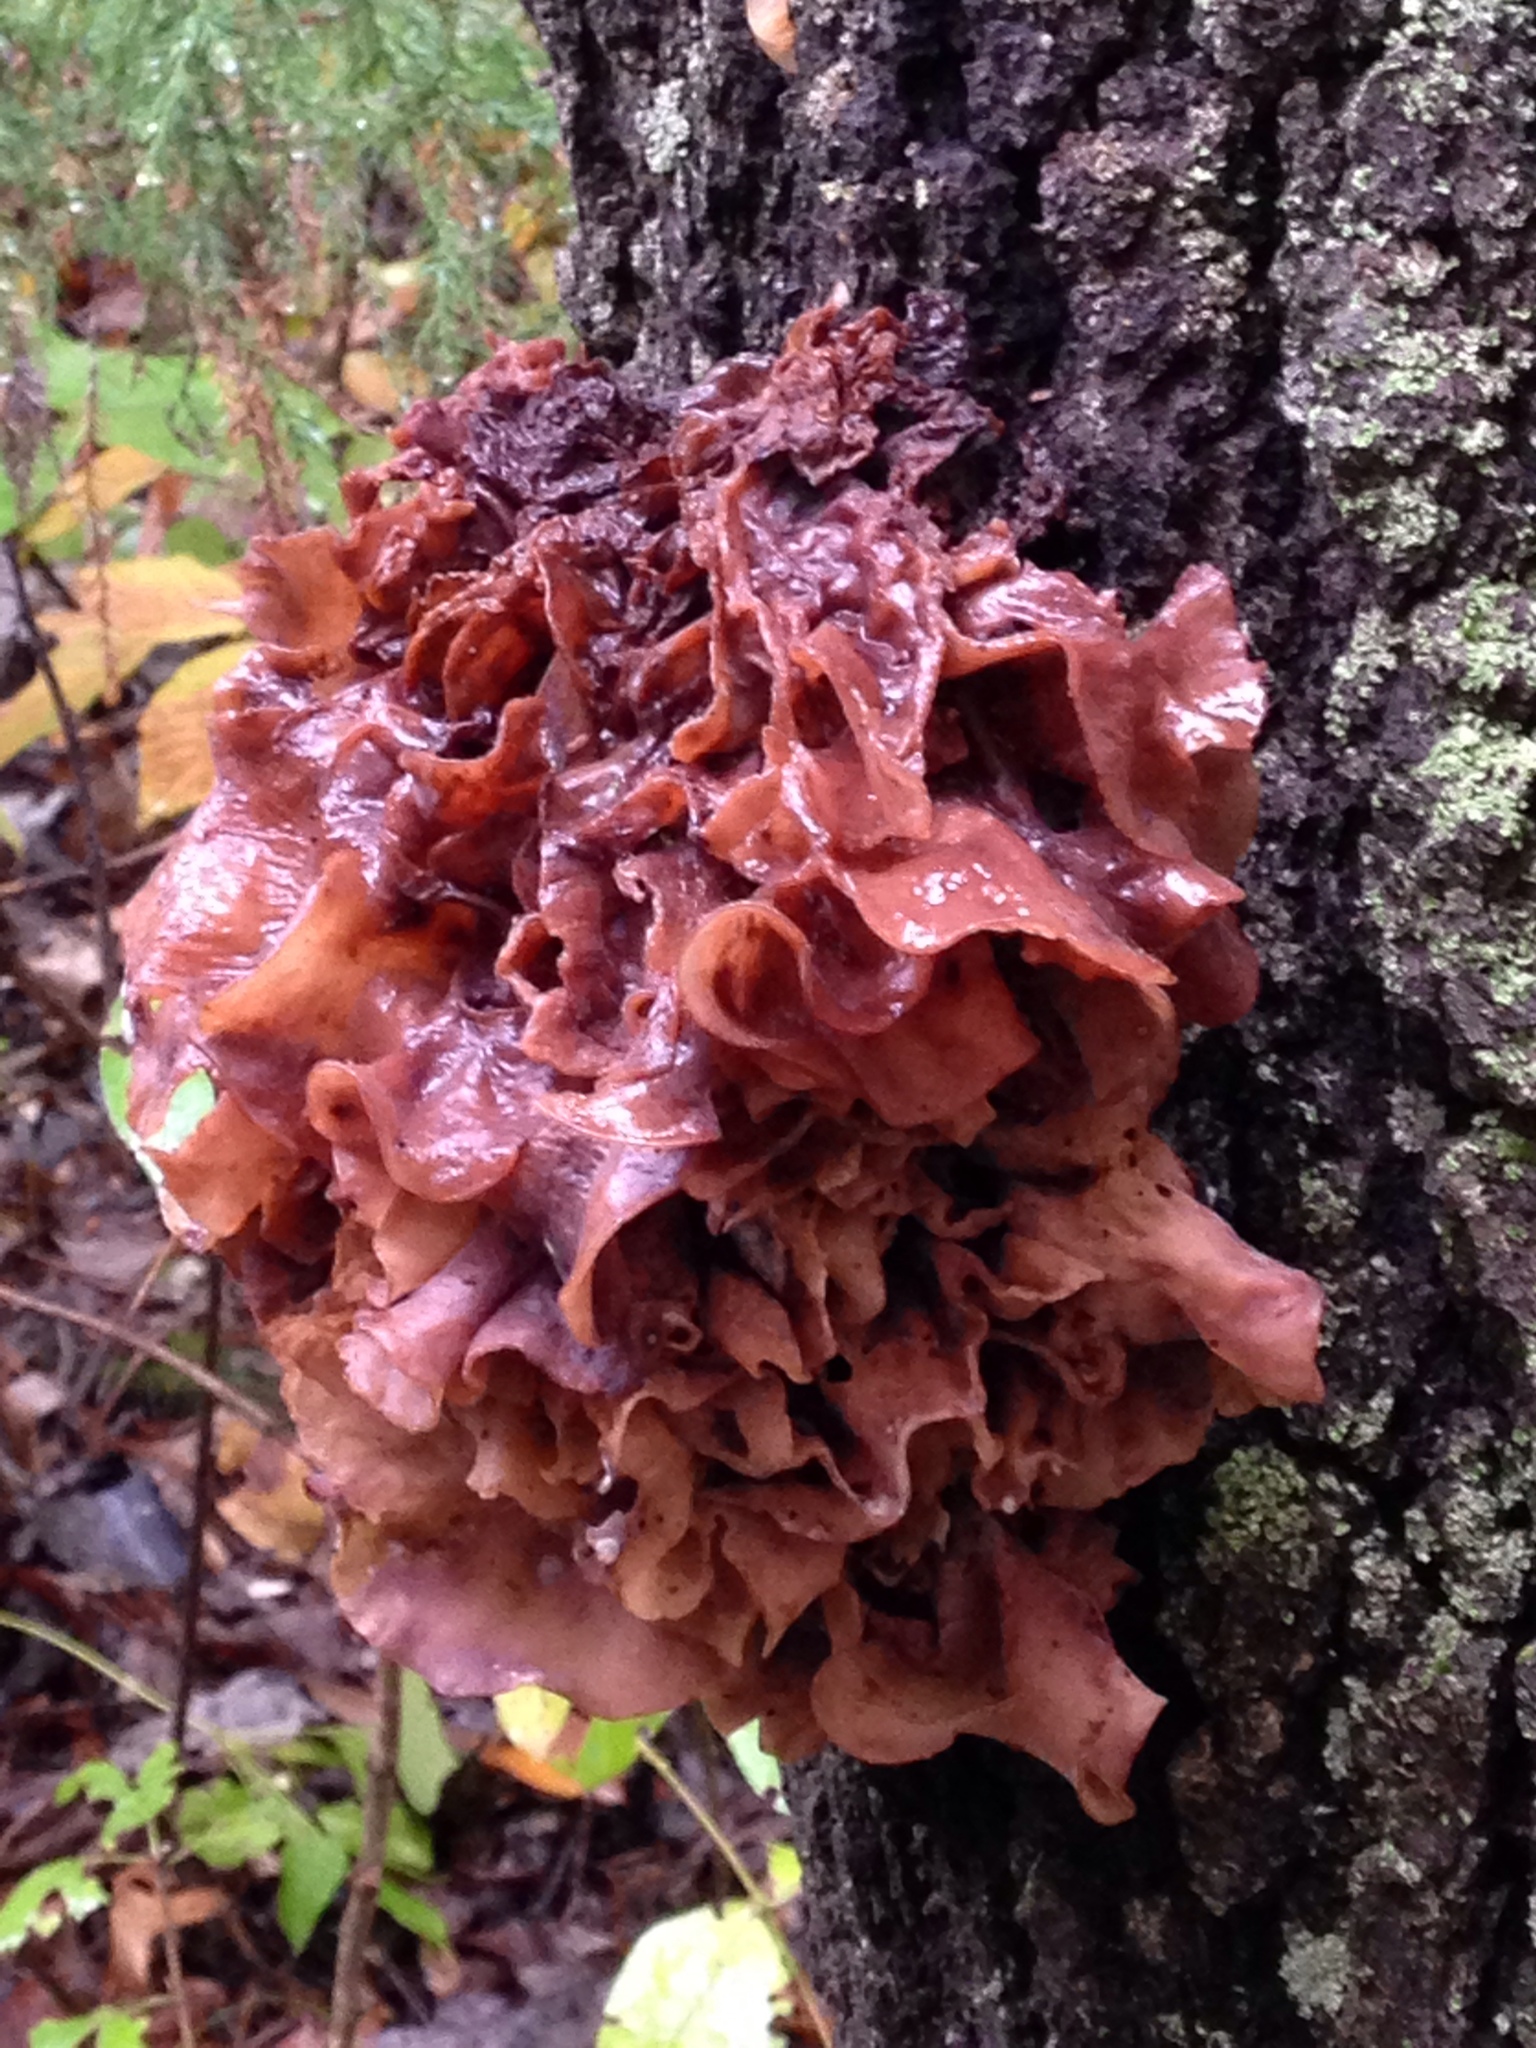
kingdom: Fungi
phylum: Basidiomycota
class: Tremellomycetes
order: Tremellales
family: Tremellaceae
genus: Phaeotremella
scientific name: Phaeotremella foliacea
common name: Leafy brain
